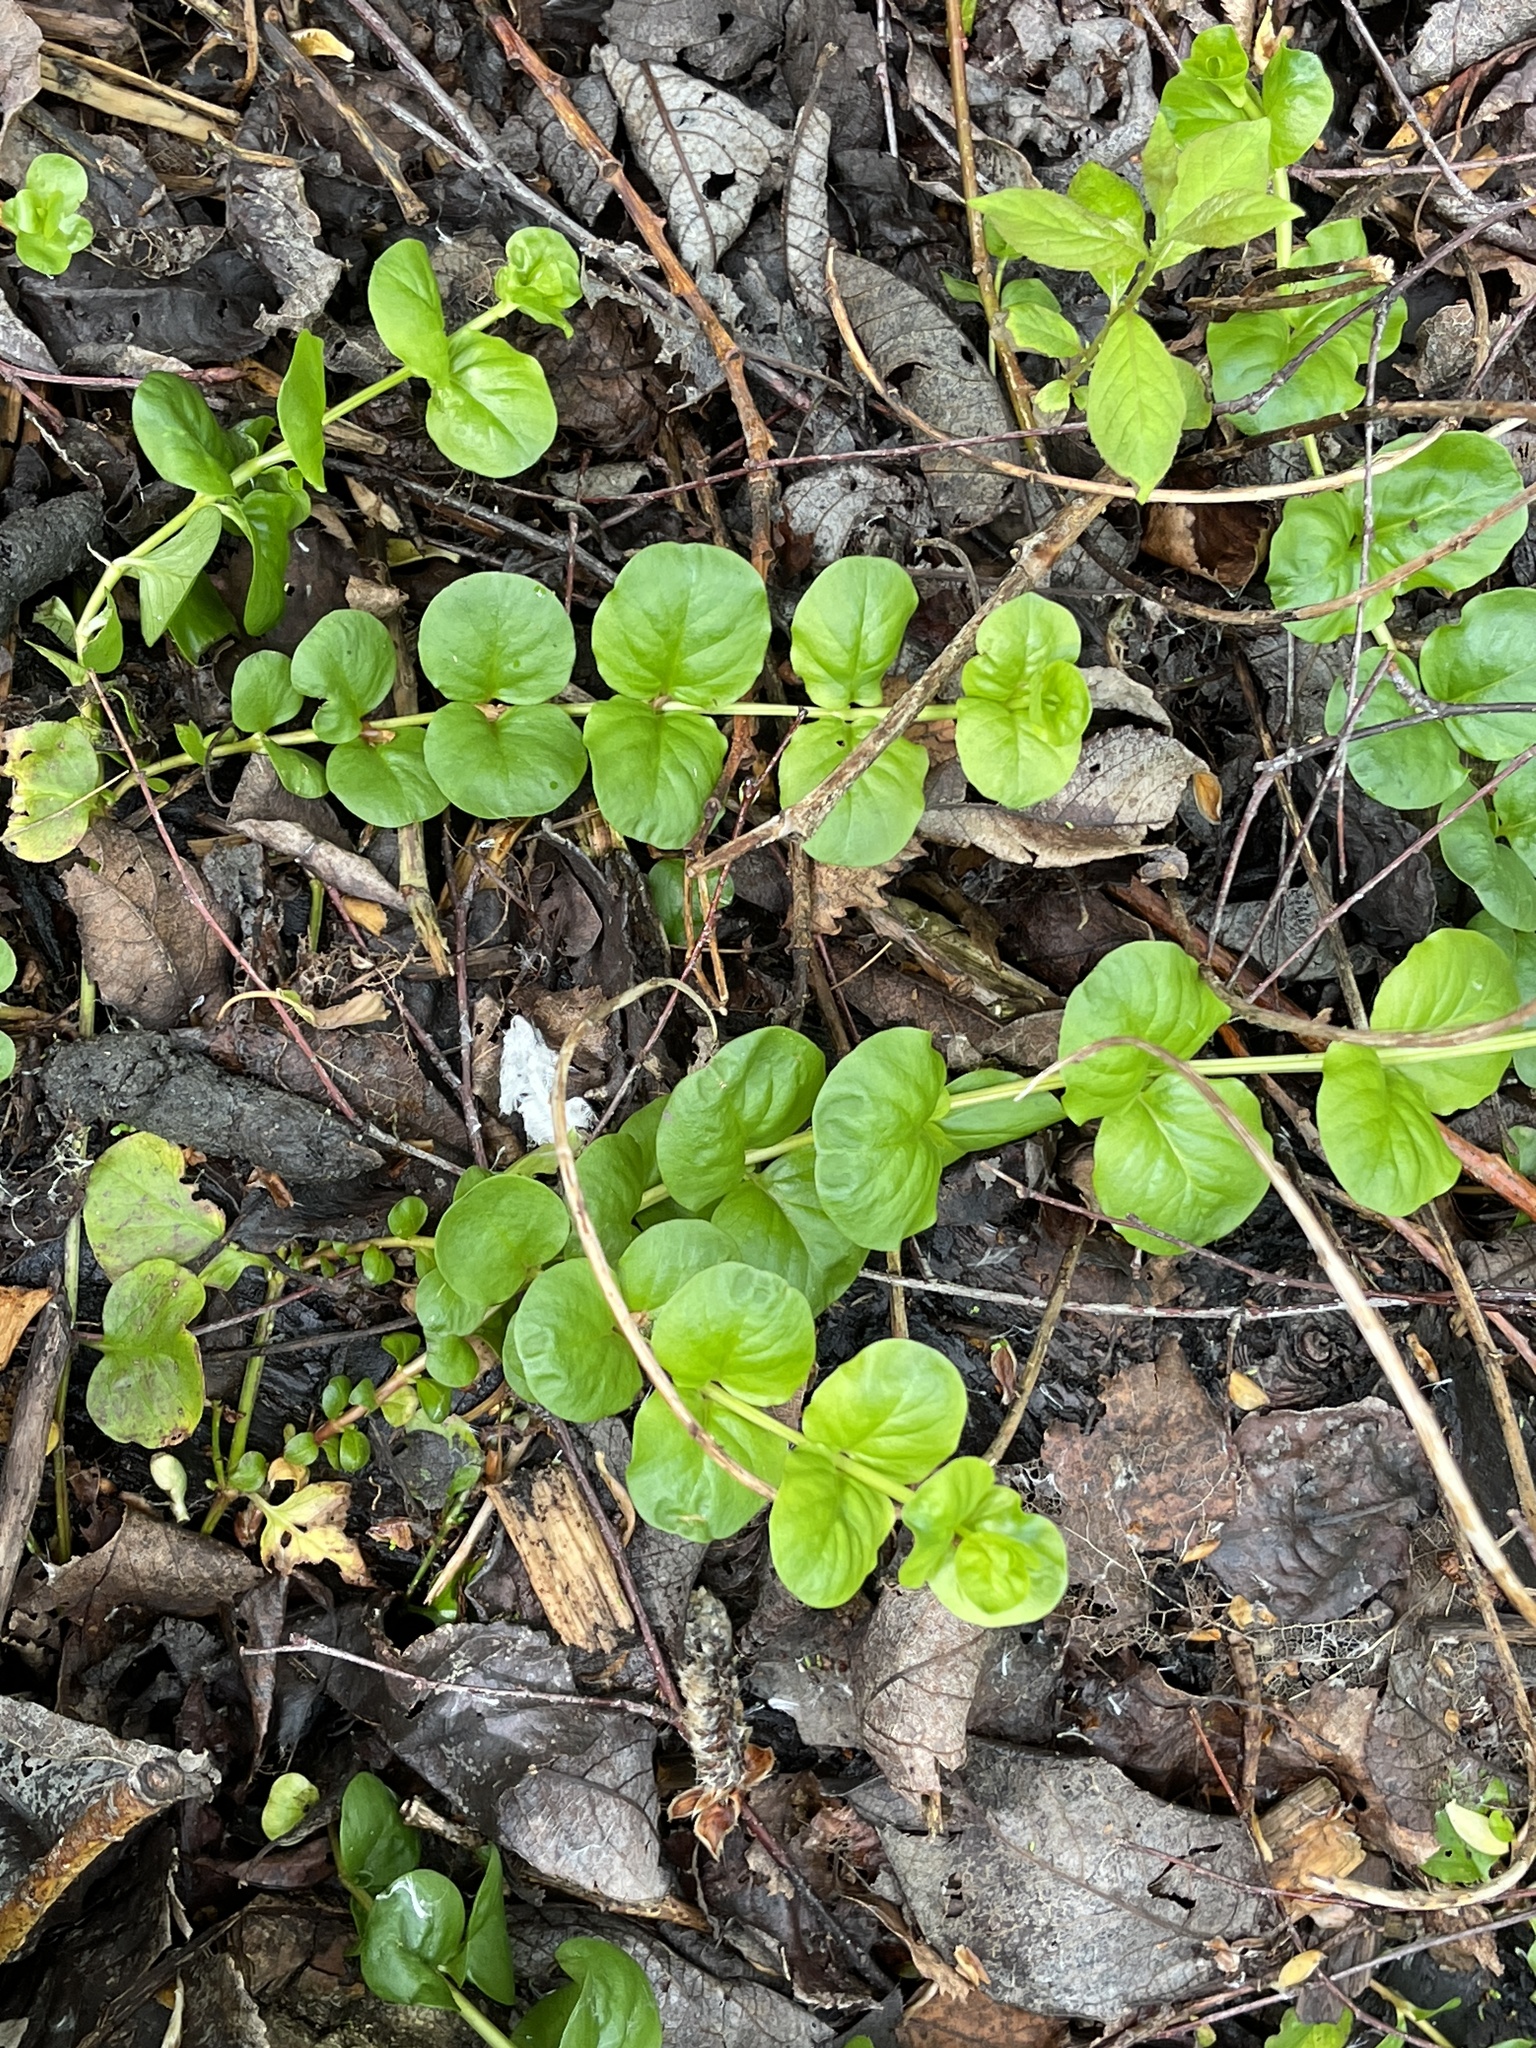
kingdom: Plantae
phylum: Tracheophyta
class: Magnoliopsida
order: Ericales
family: Primulaceae
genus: Lysimachia
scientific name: Lysimachia nummularia
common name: Moneywort
